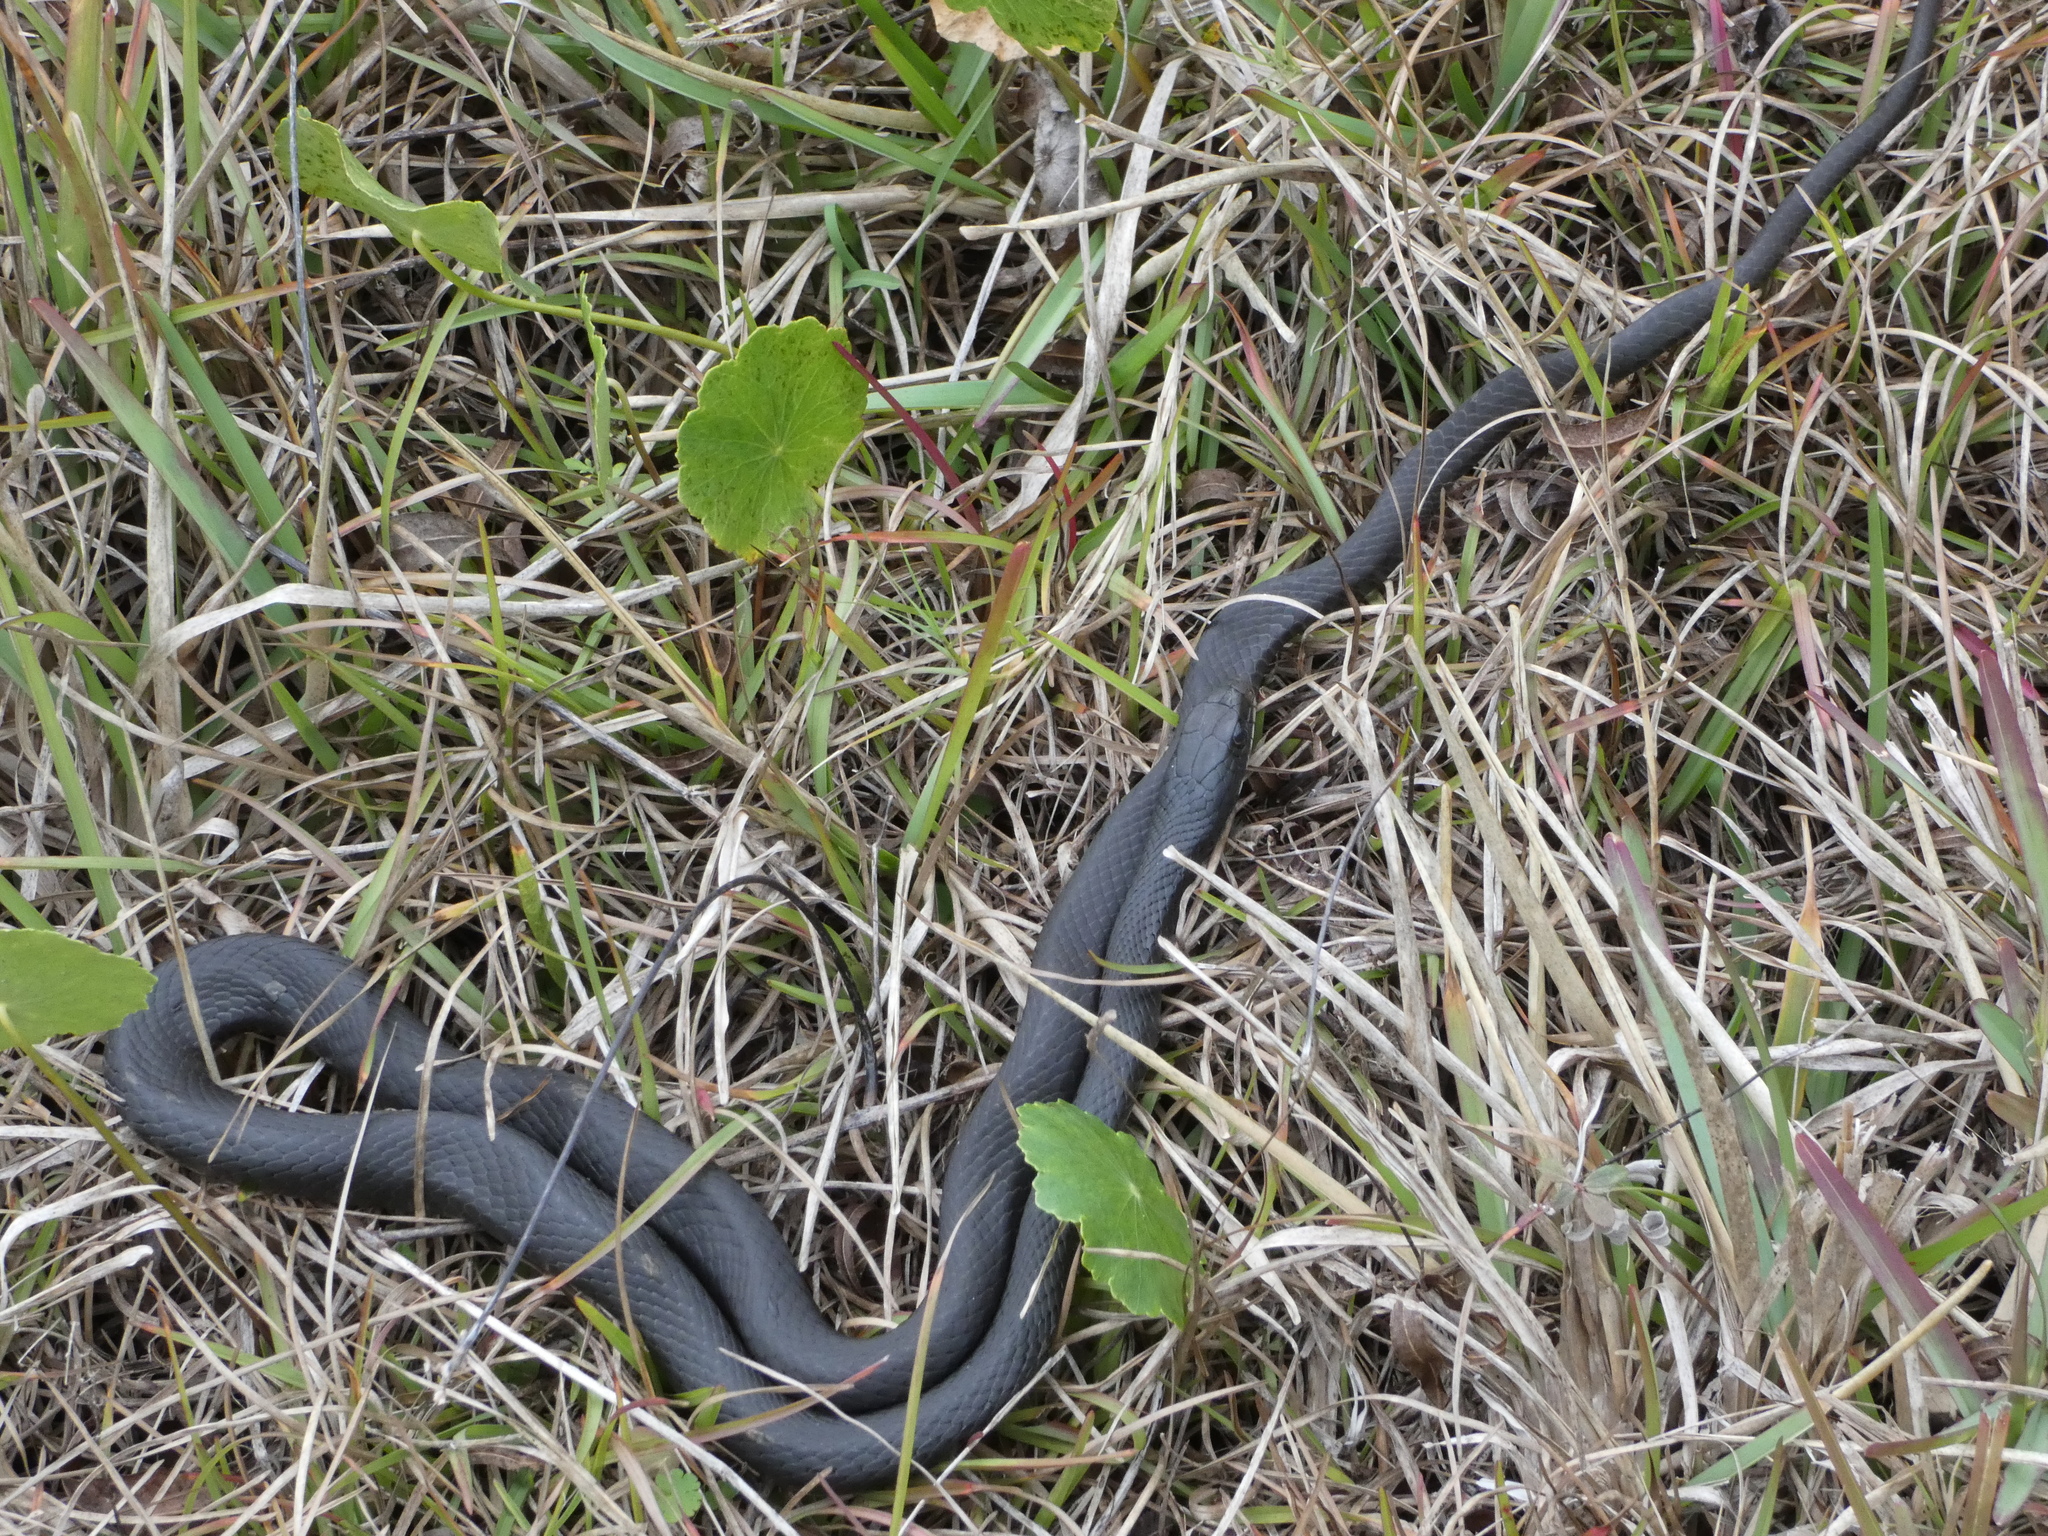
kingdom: Animalia
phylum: Chordata
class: Squamata
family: Colubridae
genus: Coluber
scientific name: Coluber constrictor
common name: Eastern racer
